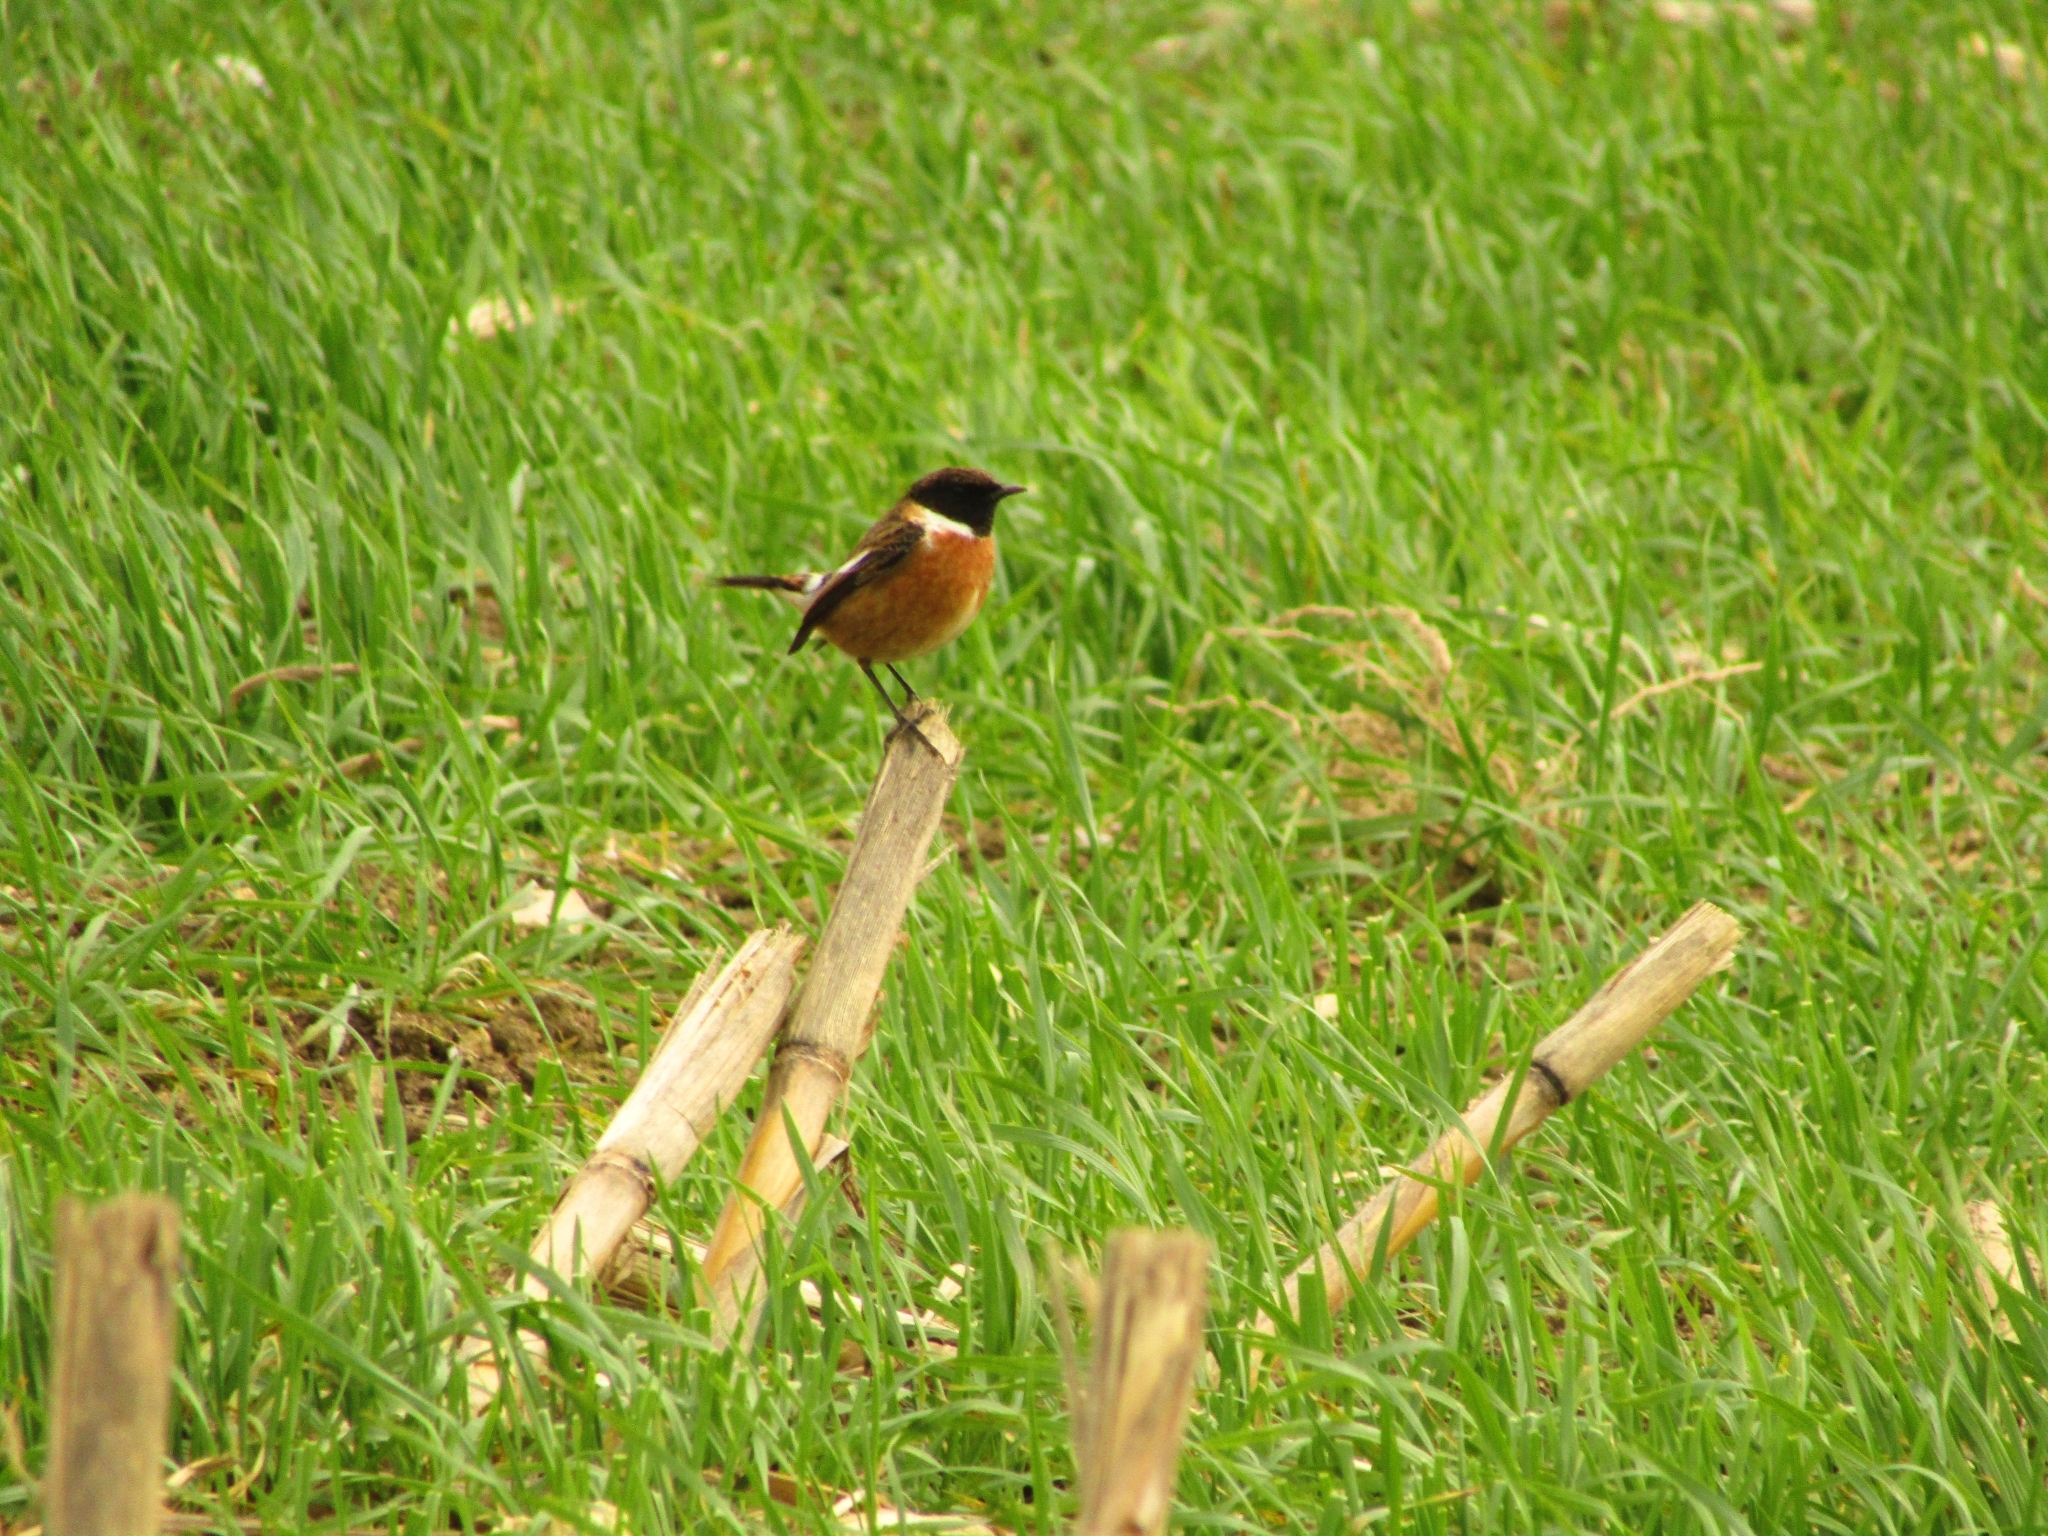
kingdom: Animalia
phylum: Chordata
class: Aves
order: Passeriformes
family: Muscicapidae
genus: Saxicola
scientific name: Saxicola rubicola
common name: European stonechat
